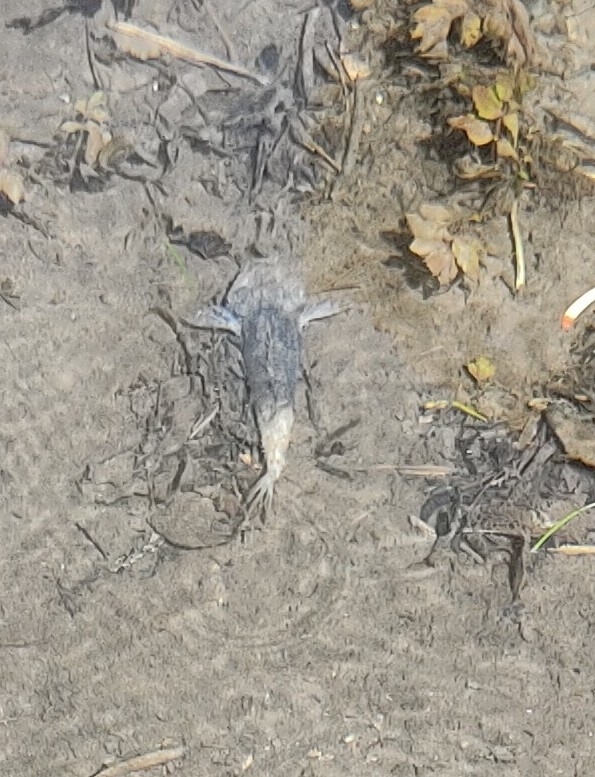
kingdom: Animalia
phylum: Chordata
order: Scorpaeniformes
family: Cottidae
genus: Cottus
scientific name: Cottus gobio
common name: Bullhead
